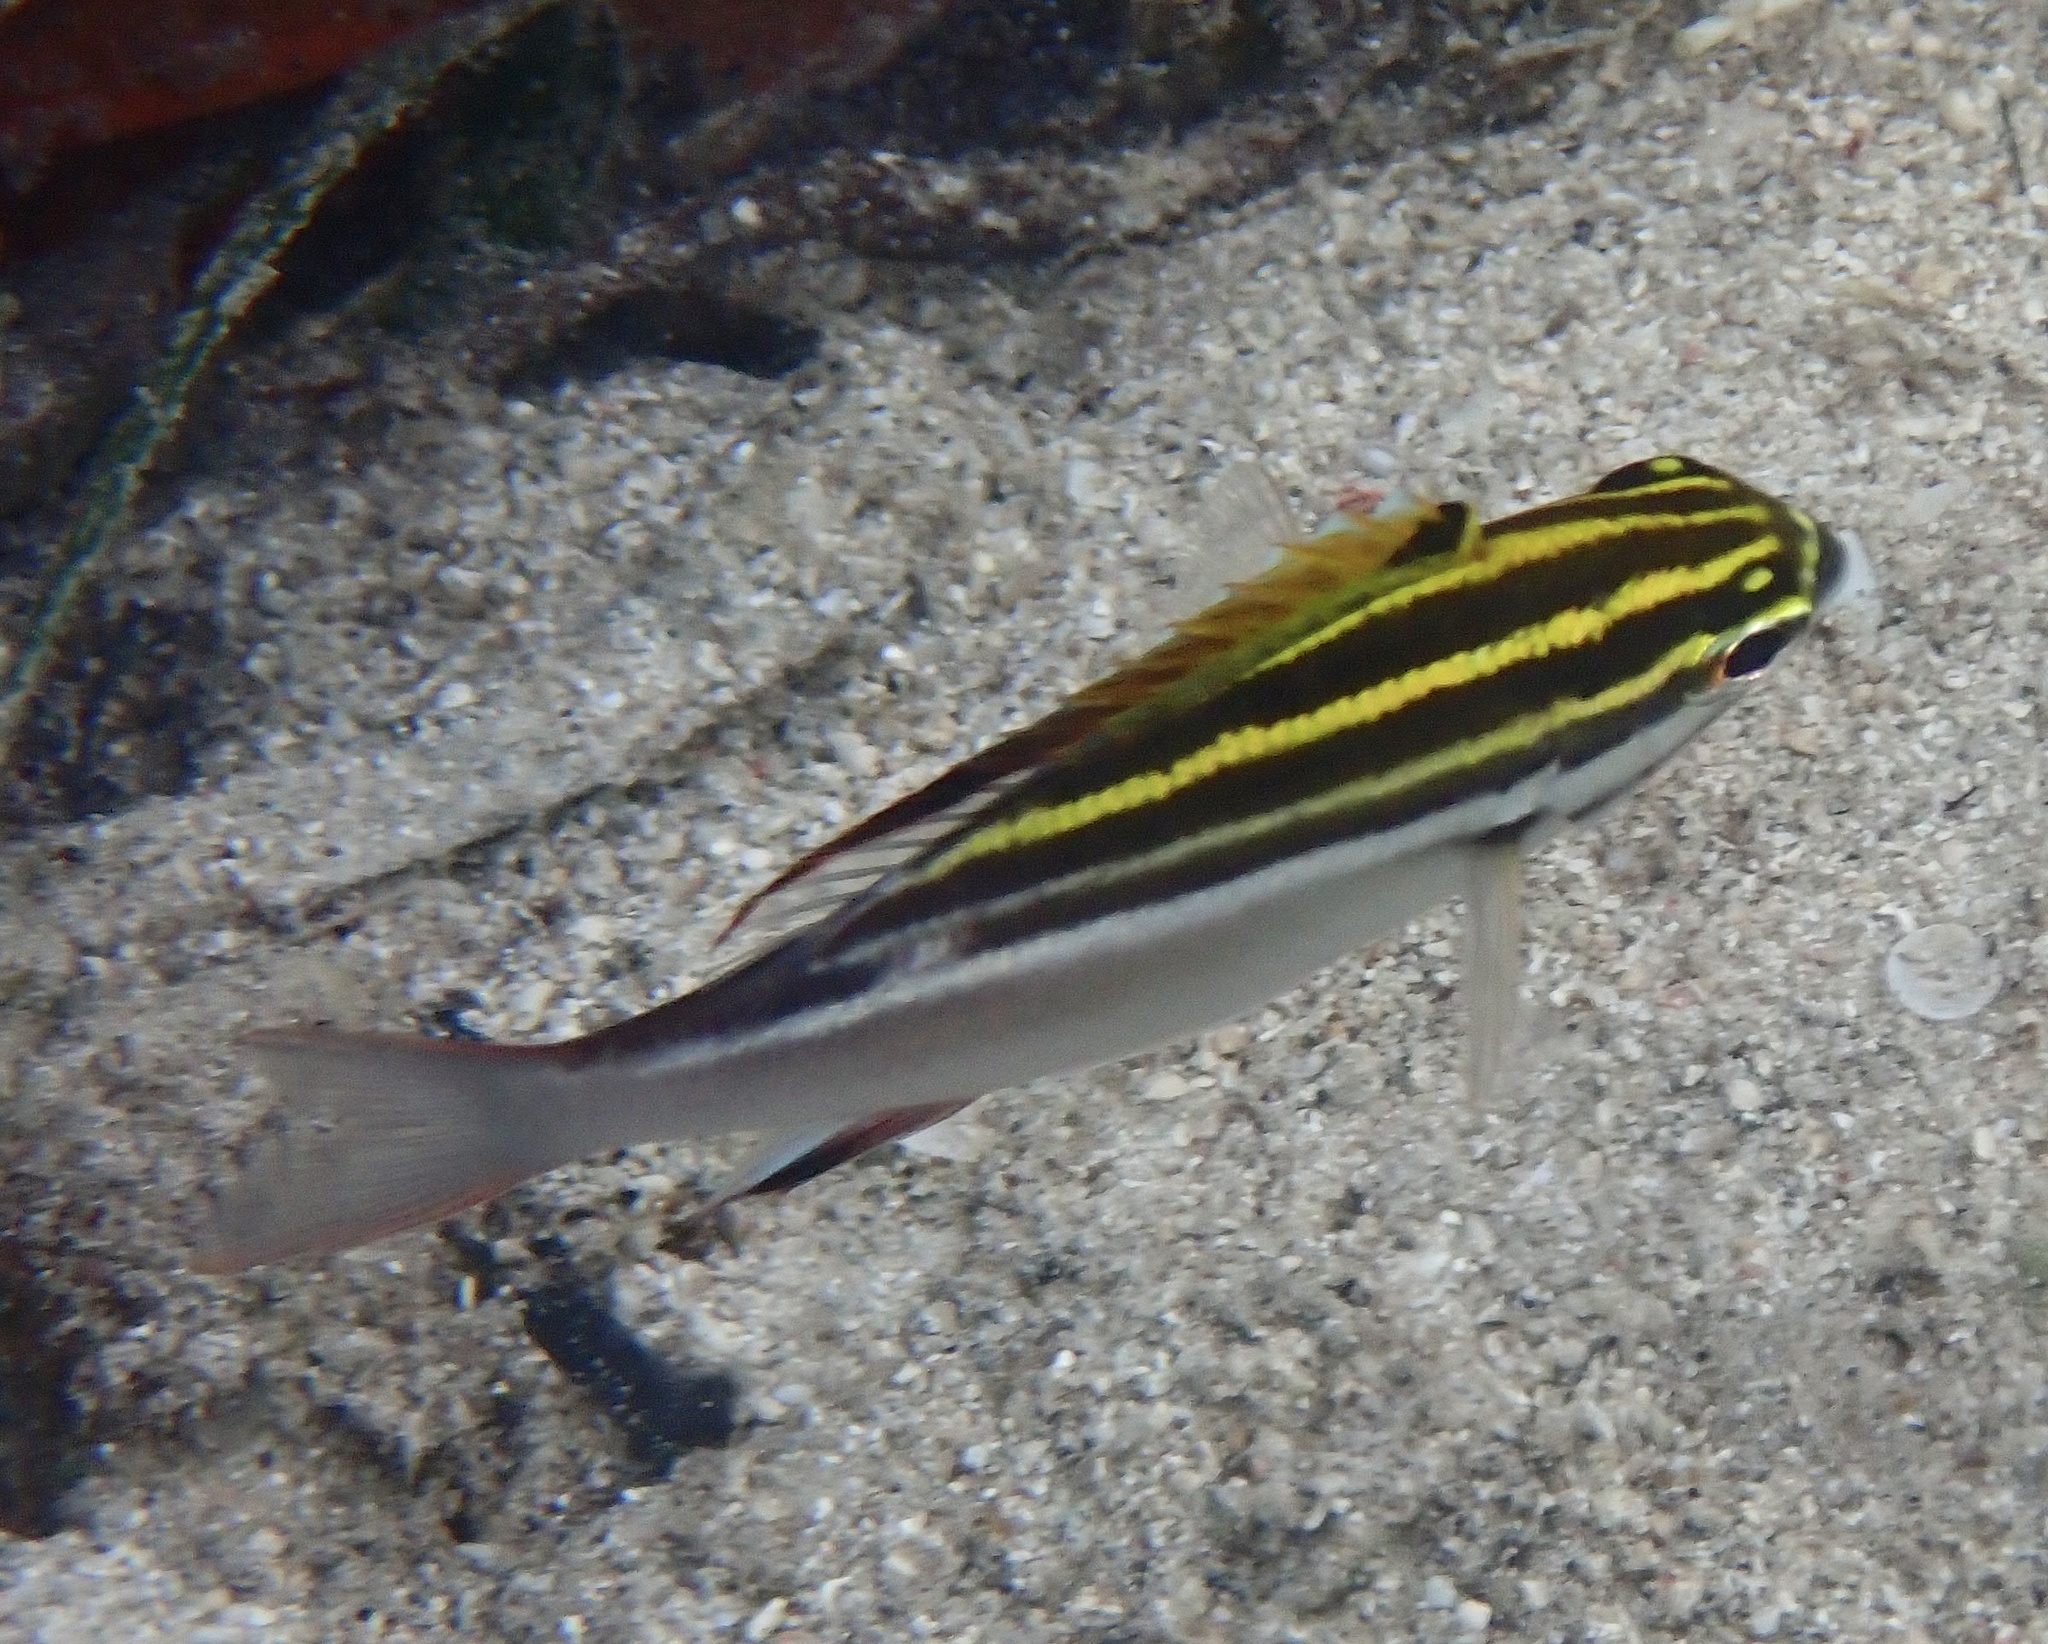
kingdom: Animalia
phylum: Chordata
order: Perciformes
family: Nemipteridae
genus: Scolopsis
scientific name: Scolopsis bilineata
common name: Two-lined monocle bream
